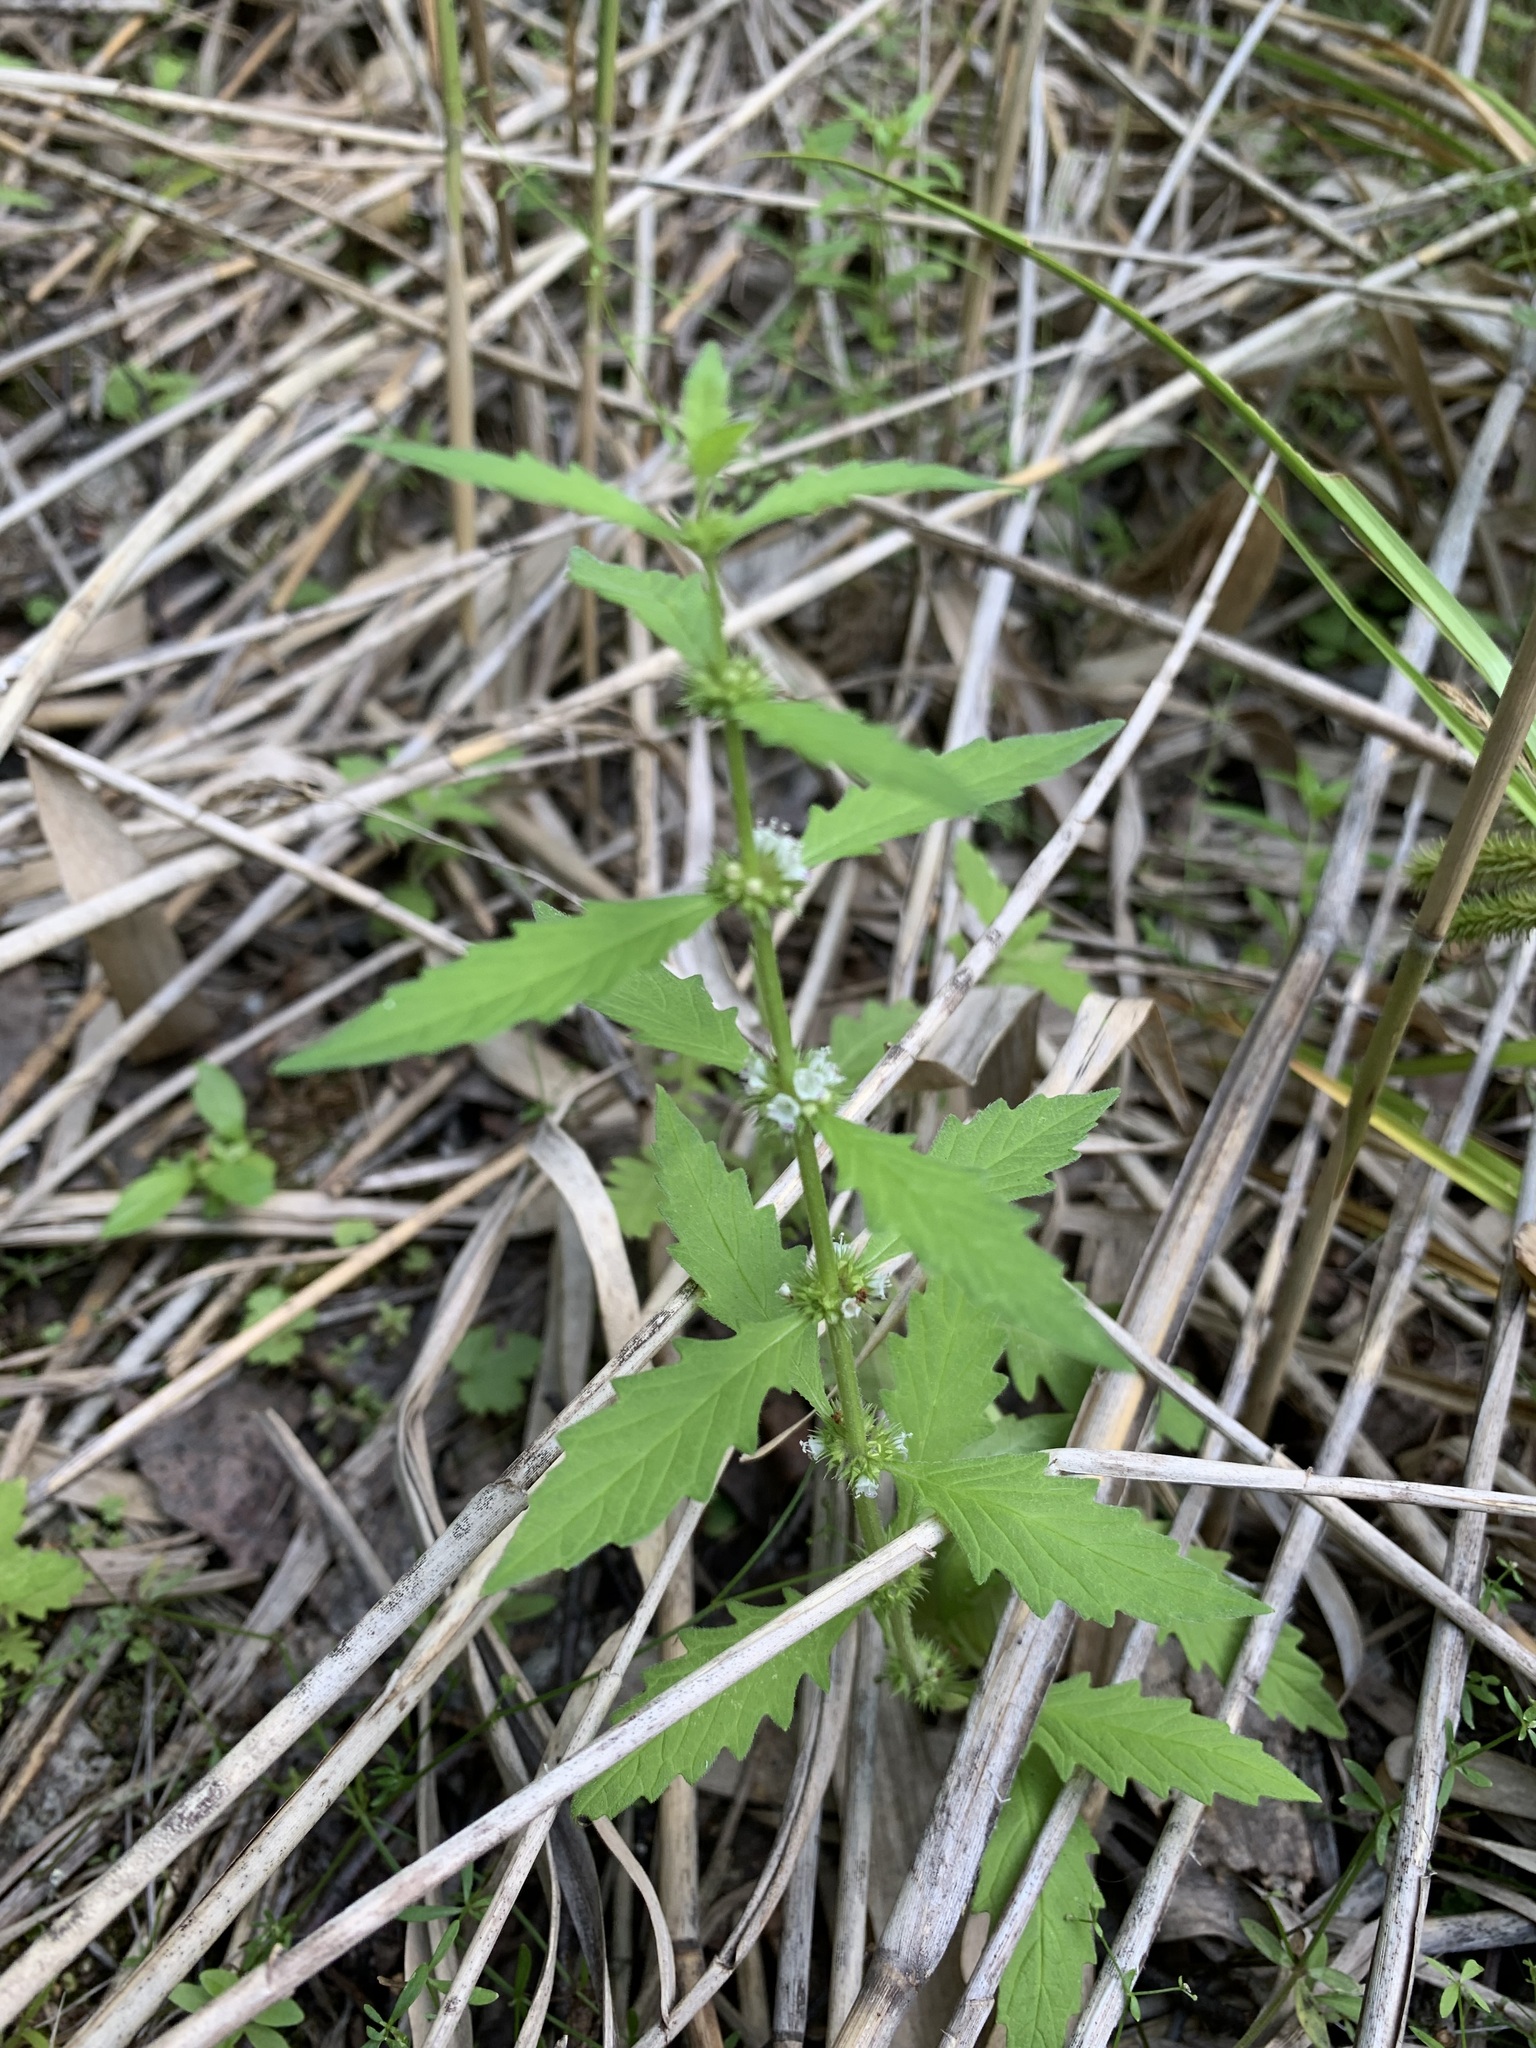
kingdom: Plantae
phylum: Tracheophyta
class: Magnoliopsida
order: Lamiales
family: Lamiaceae
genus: Lycopus
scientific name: Lycopus europaeus
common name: European bugleweed
